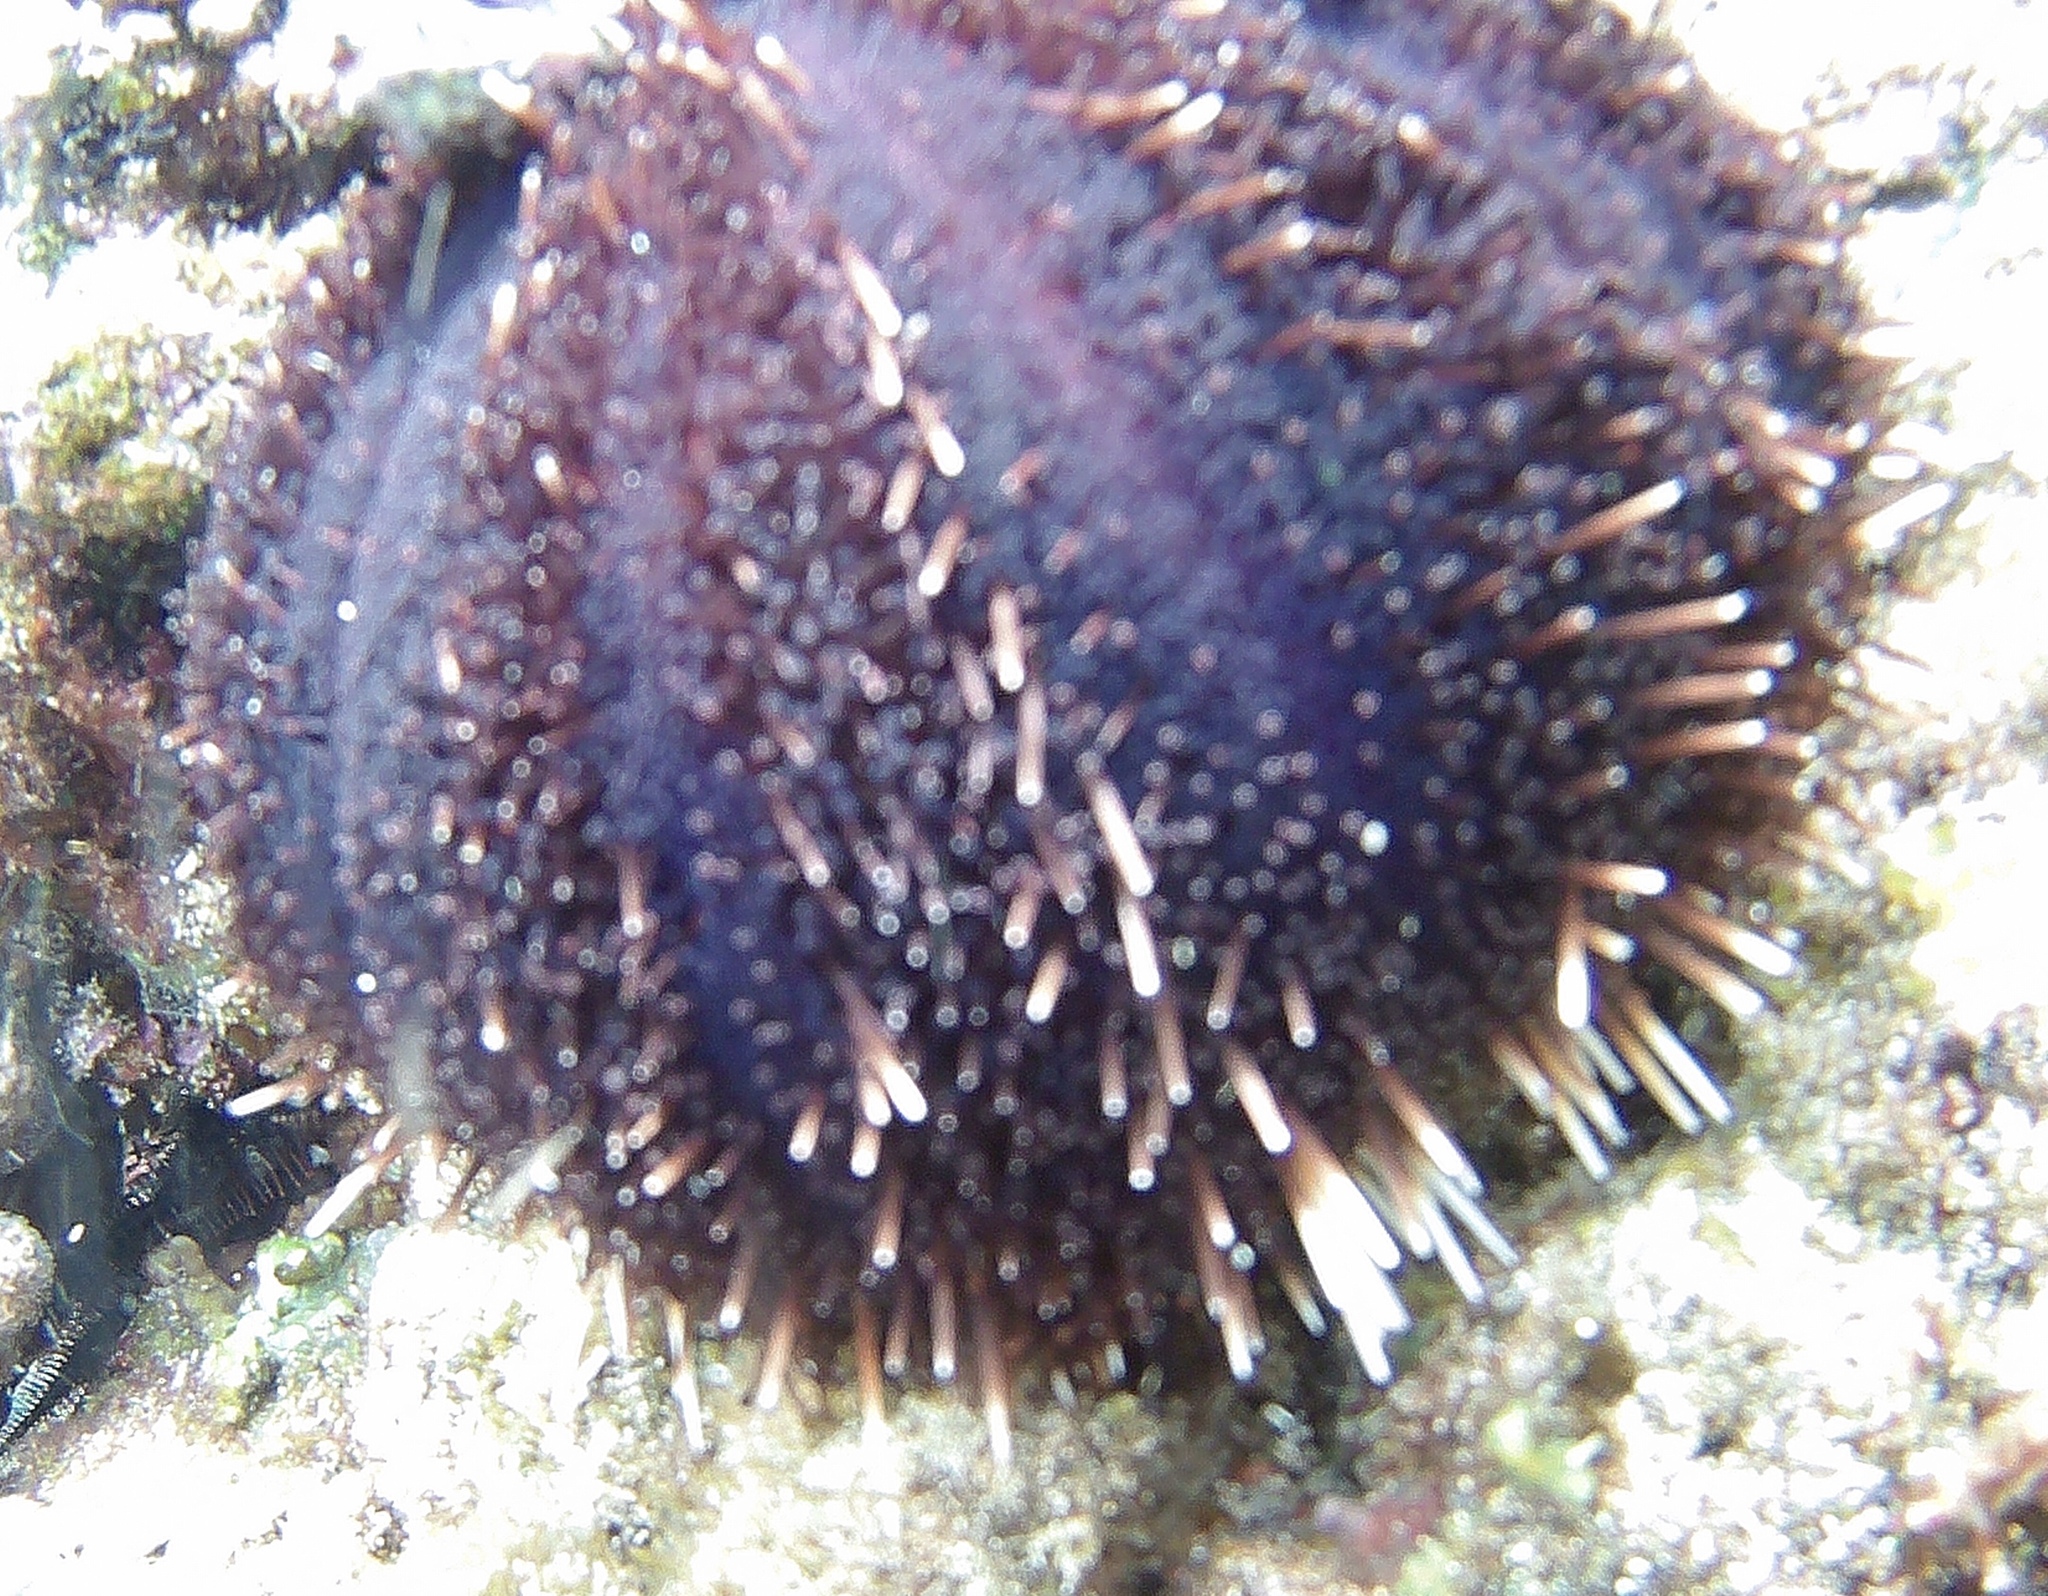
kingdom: Animalia
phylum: Echinodermata
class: Echinoidea
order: Camarodonta
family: Toxopneustidae
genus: Tripneustes
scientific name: Tripneustes gratilla
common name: Bischofsmützenseeigel
